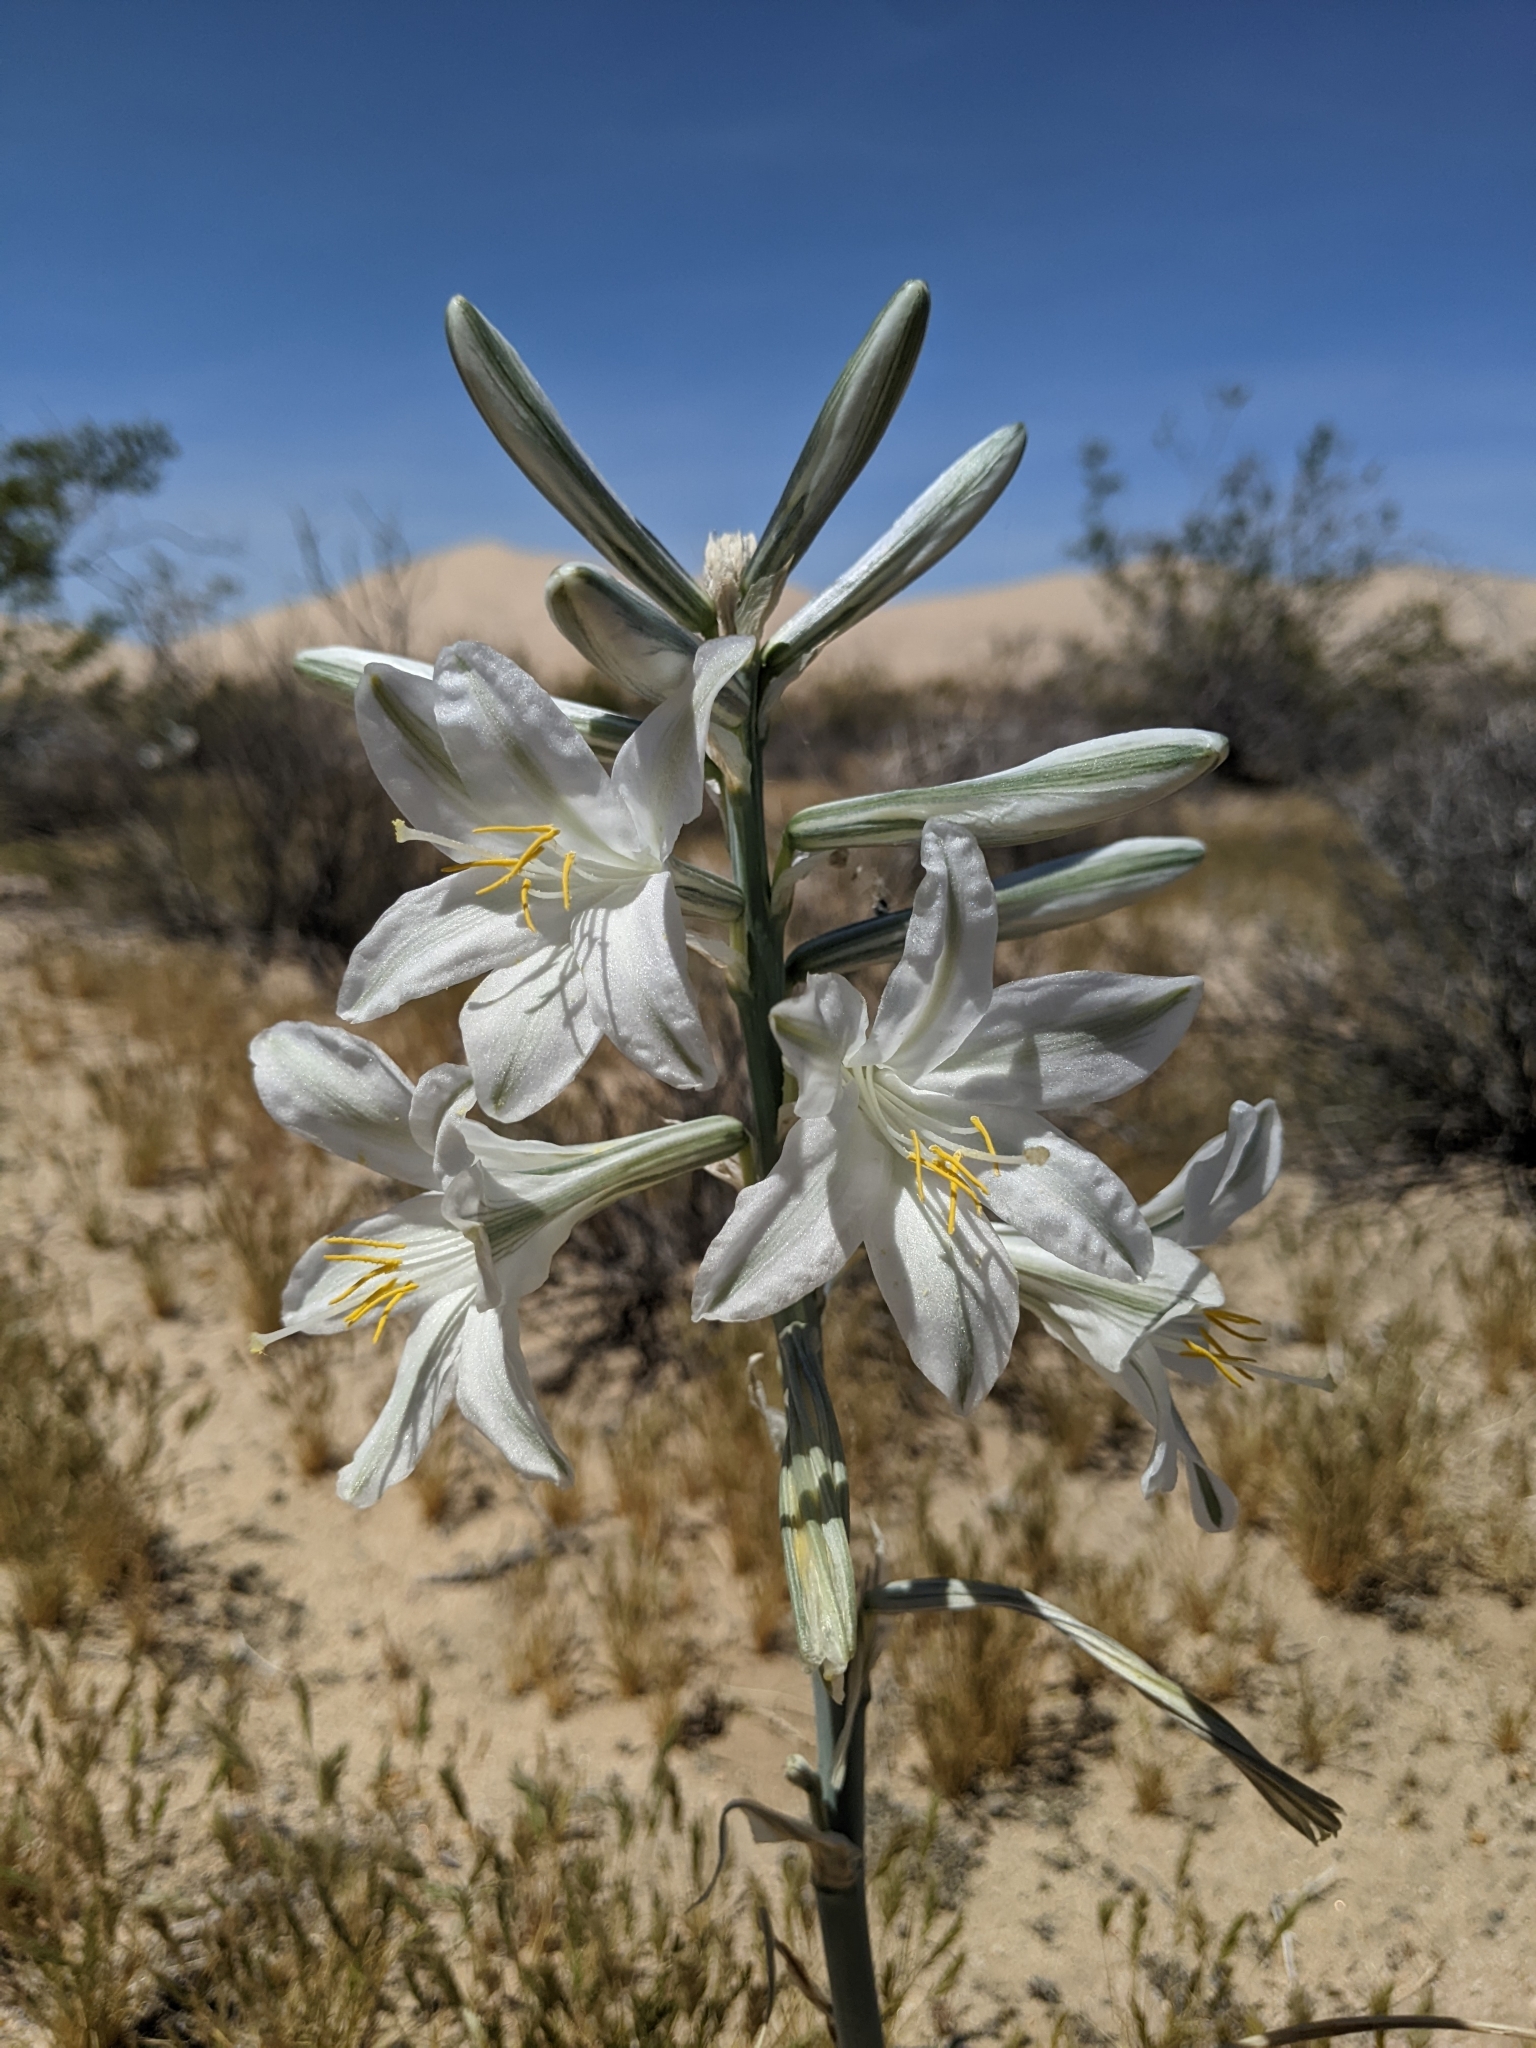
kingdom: Plantae
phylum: Tracheophyta
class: Liliopsida
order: Asparagales
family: Asparagaceae
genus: Hesperocallis
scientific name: Hesperocallis undulata
